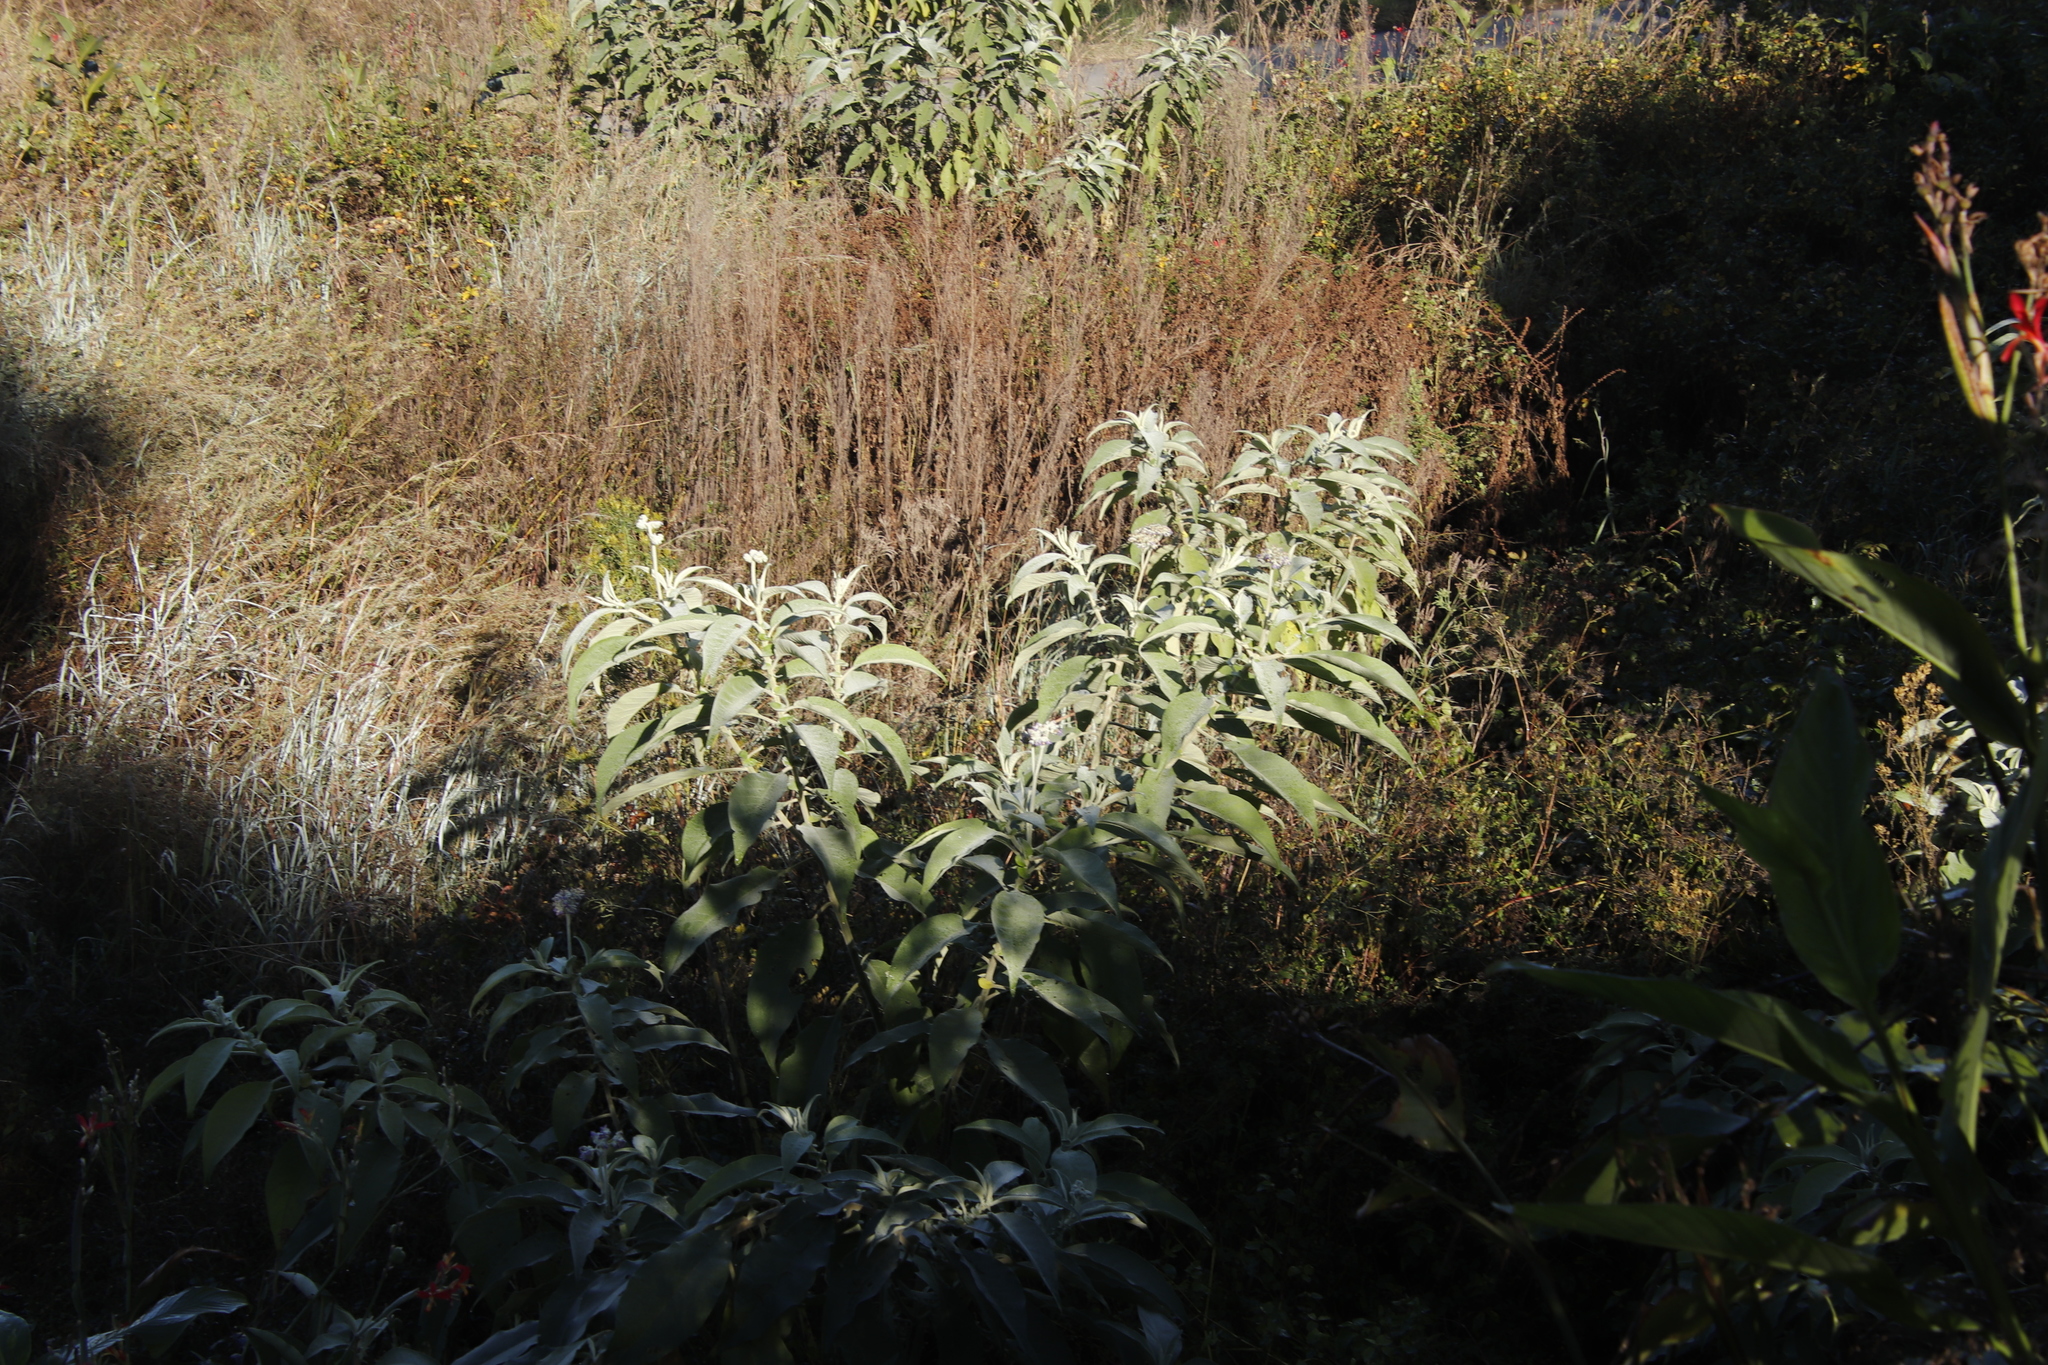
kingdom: Plantae
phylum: Tracheophyta
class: Magnoliopsida
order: Solanales
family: Solanaceae
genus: Solanum
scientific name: Solanum mauritianum
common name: Earleaf nightshade
